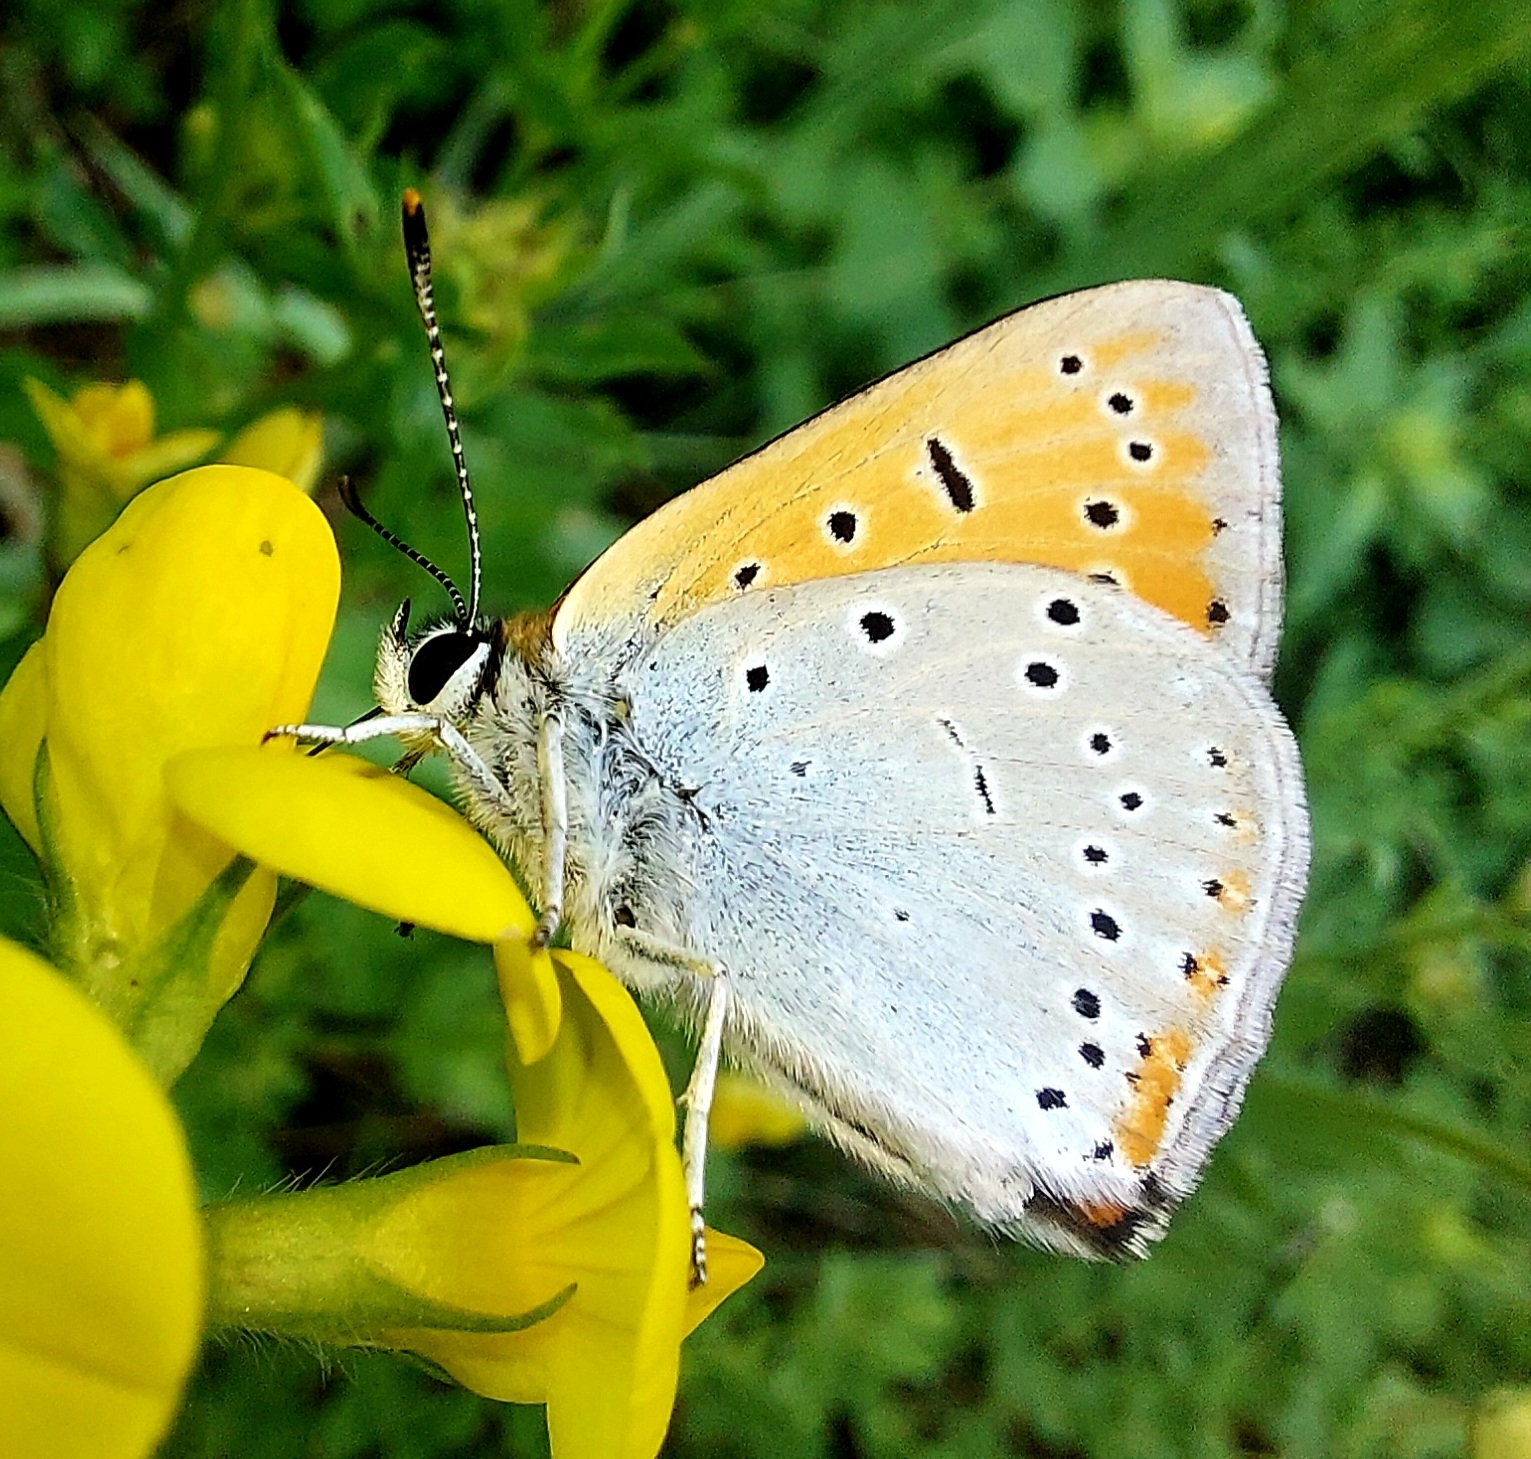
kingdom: Animalia
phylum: Arthropoda
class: Insecta
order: Lepidoptera
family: Lycaenidae
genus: Lycaena
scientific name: Lycaena dispar
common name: Large copper
